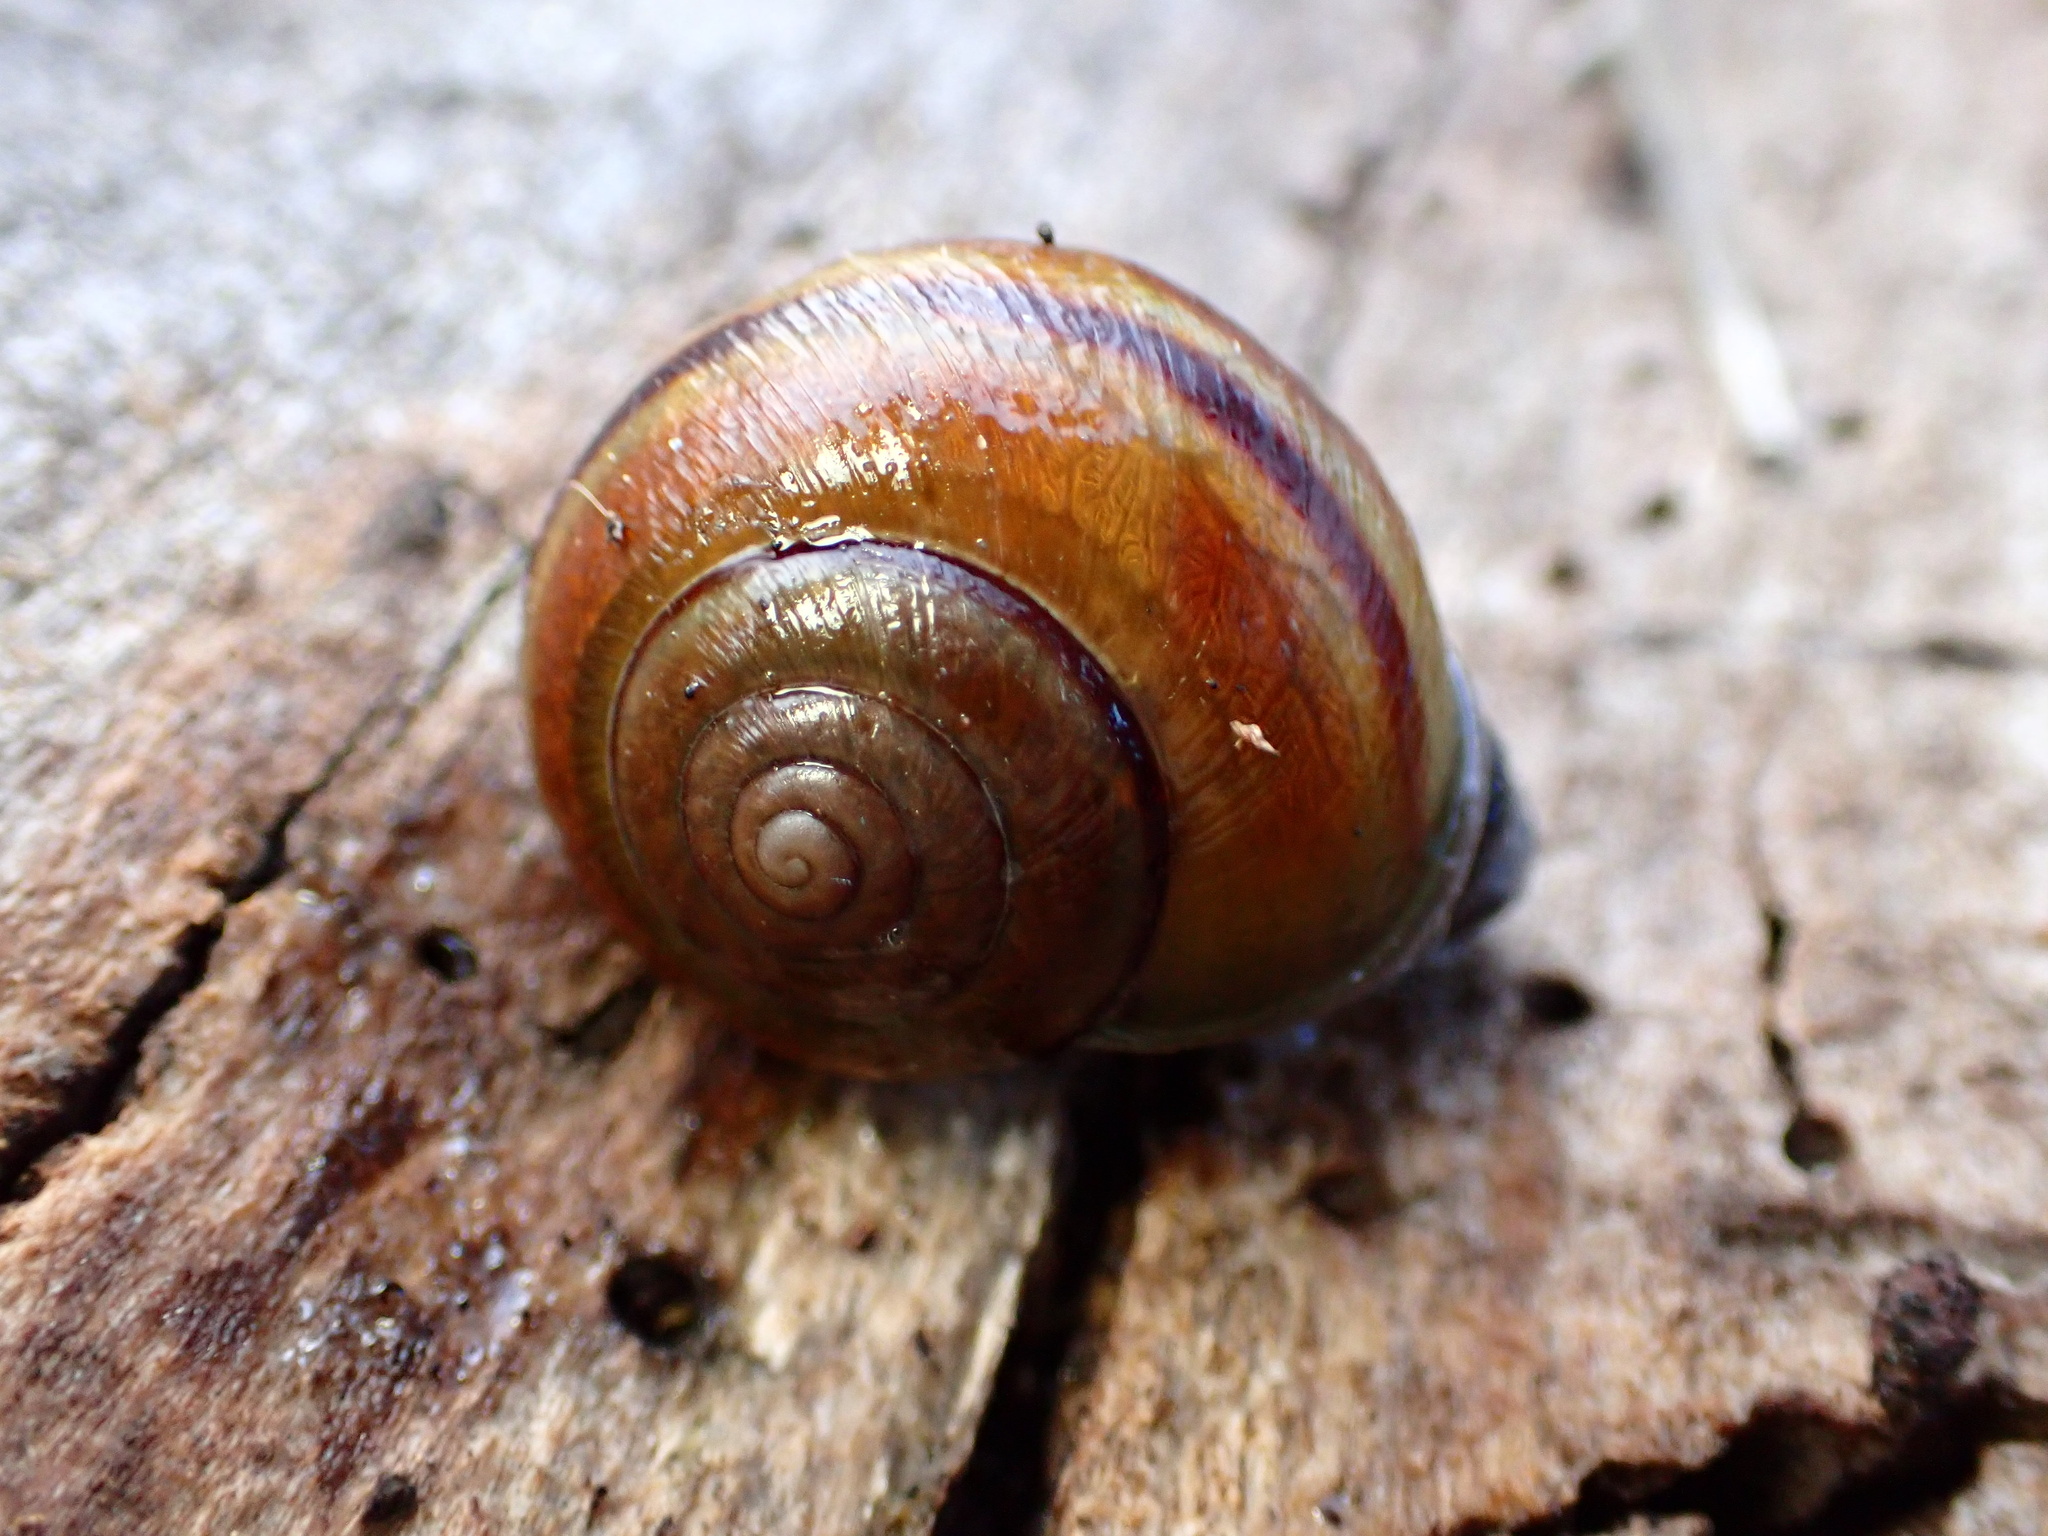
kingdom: Animalia
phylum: Mollusca
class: Gastropoda
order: Stylommatophora
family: Xanthonychidae
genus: Helminthoglypta
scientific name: Helminthoglypta tudiculata
